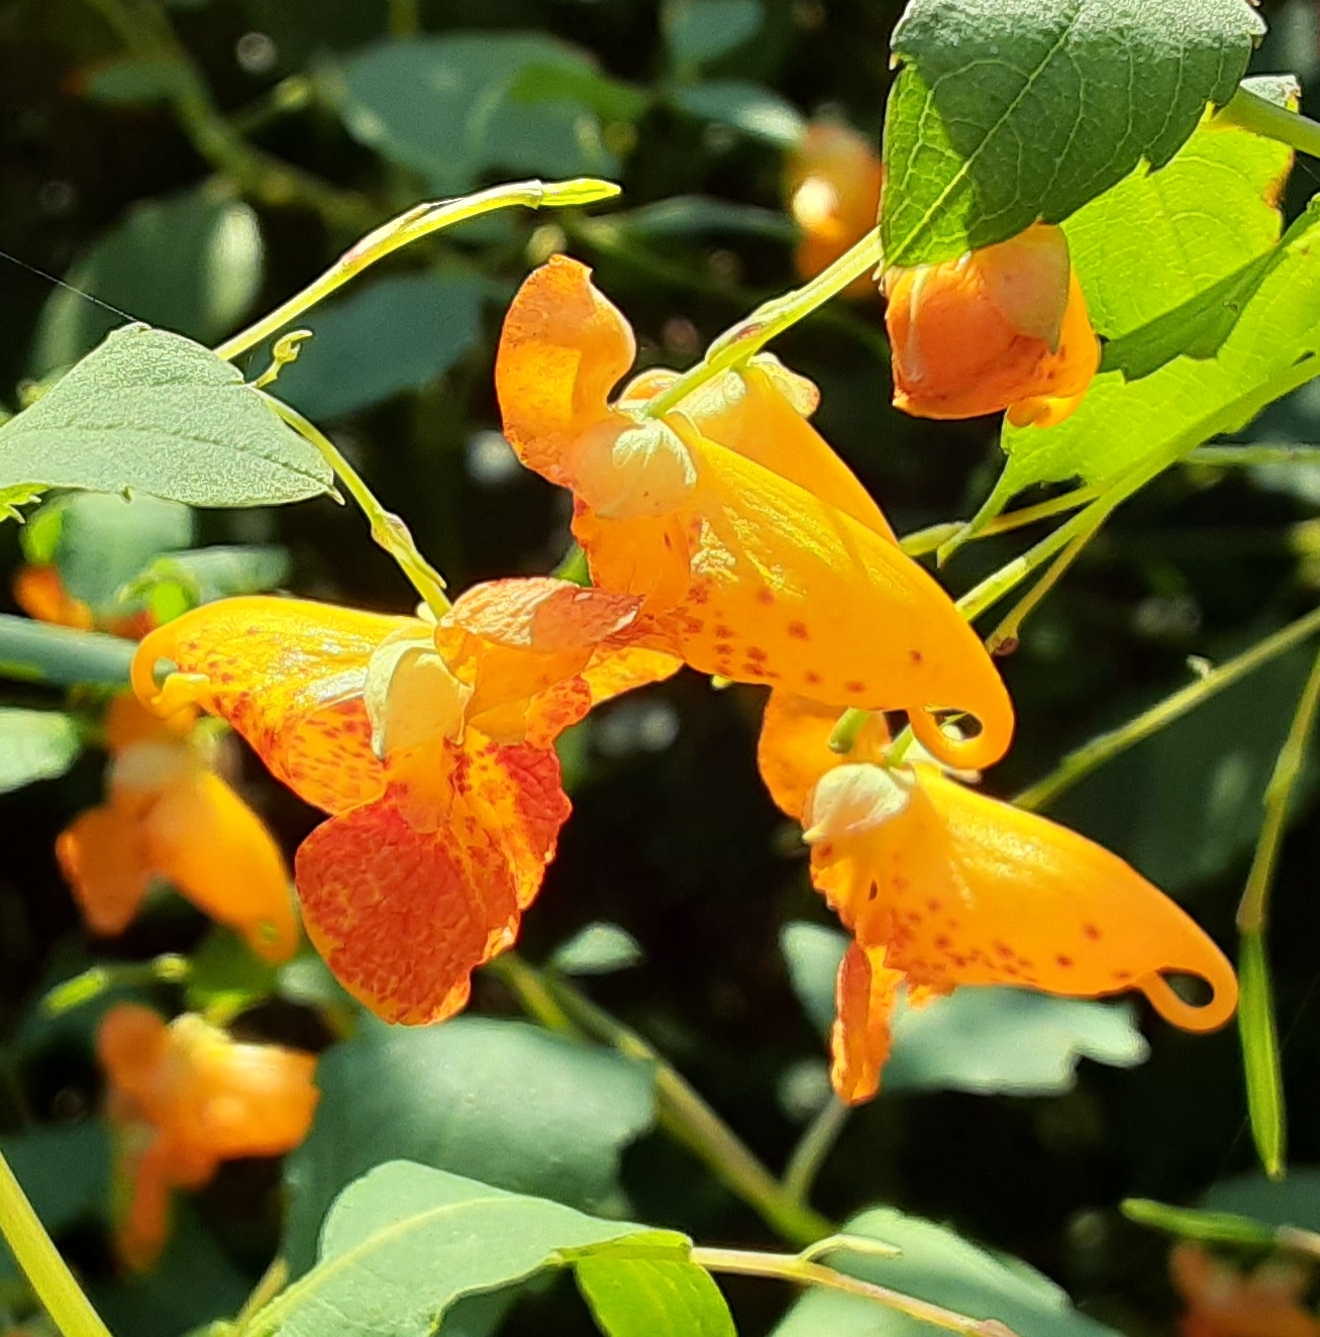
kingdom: Plantae
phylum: Tracheophyta
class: Magnoliopsida
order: Ericales
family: Balsaminaceae
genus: Impatiens
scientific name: Impatiens capensis
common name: Orange balsam
